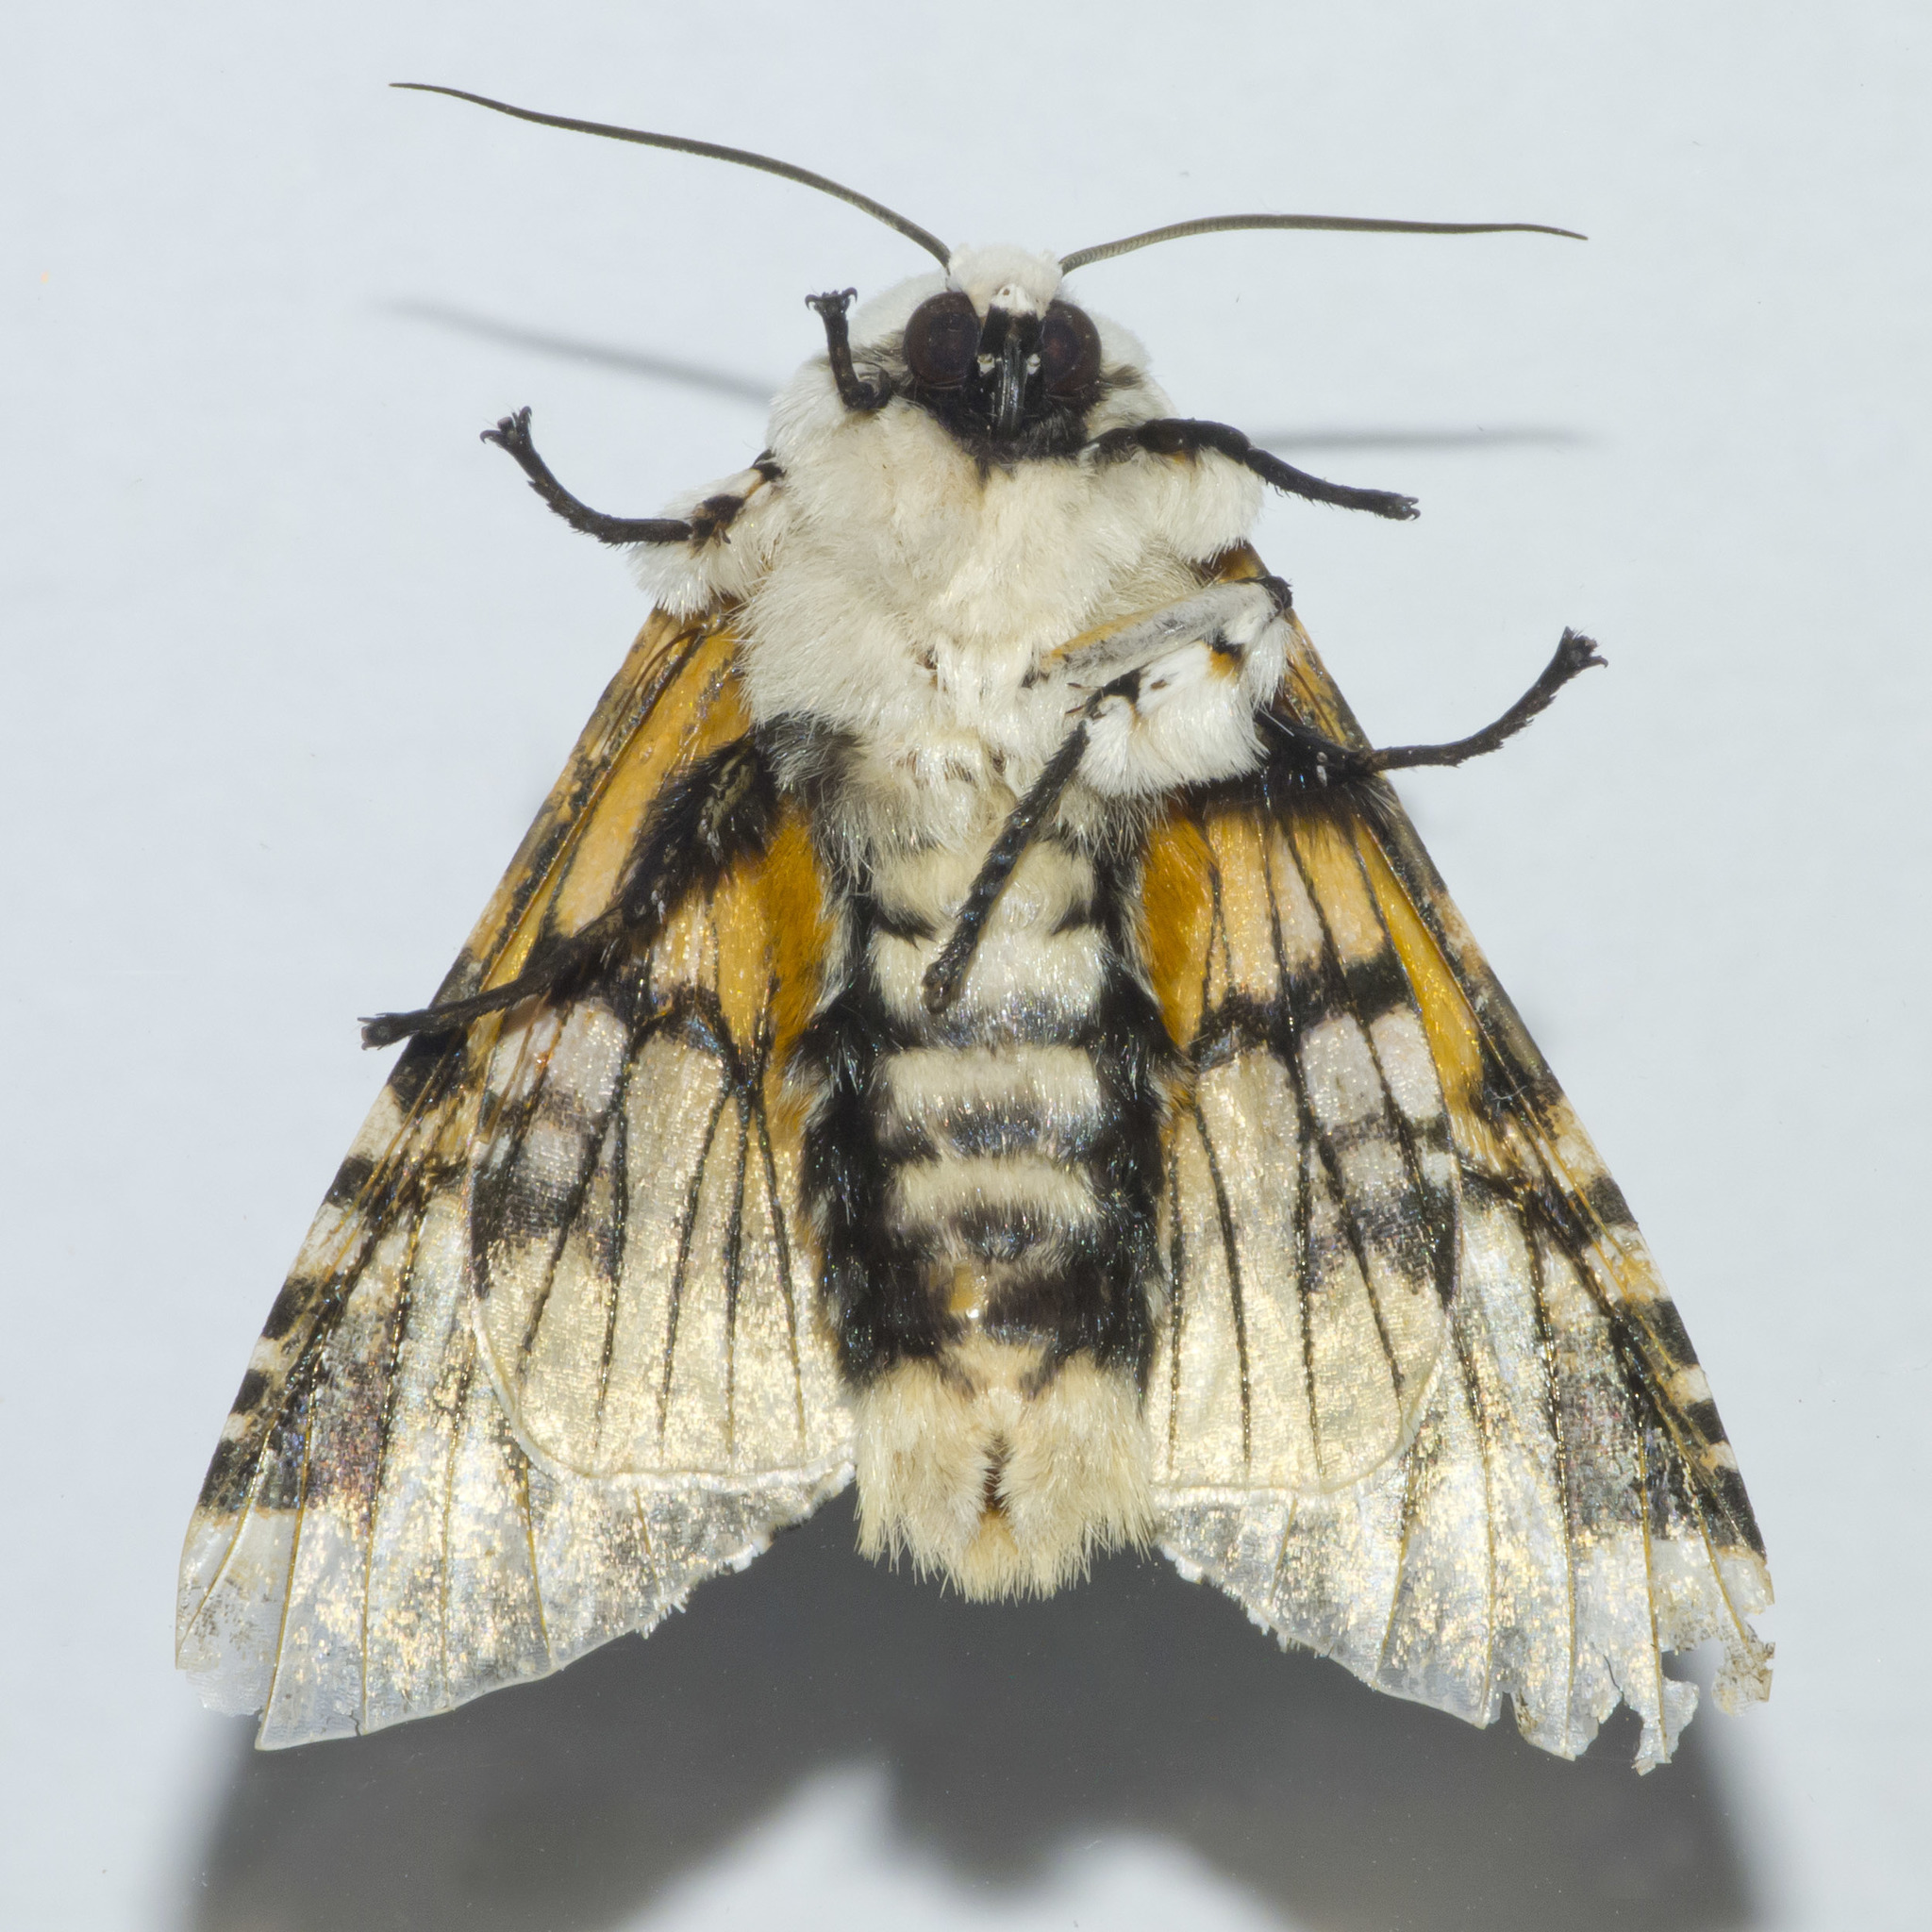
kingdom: Animalia
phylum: Arthropoda
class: Insecta
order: Lepidoptera
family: Noctuidae
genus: Bathyra
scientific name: Bathyra sagata
